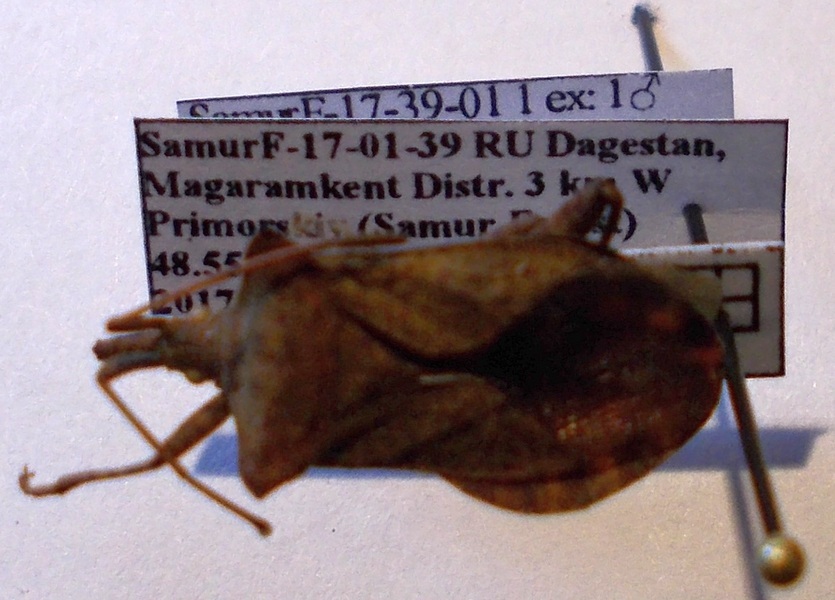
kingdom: Animalia
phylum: Arthropoda
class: Insecta
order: Hemiptera
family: Coreidae
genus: Coreus
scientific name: Coreus marginatus
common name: Dock bug
